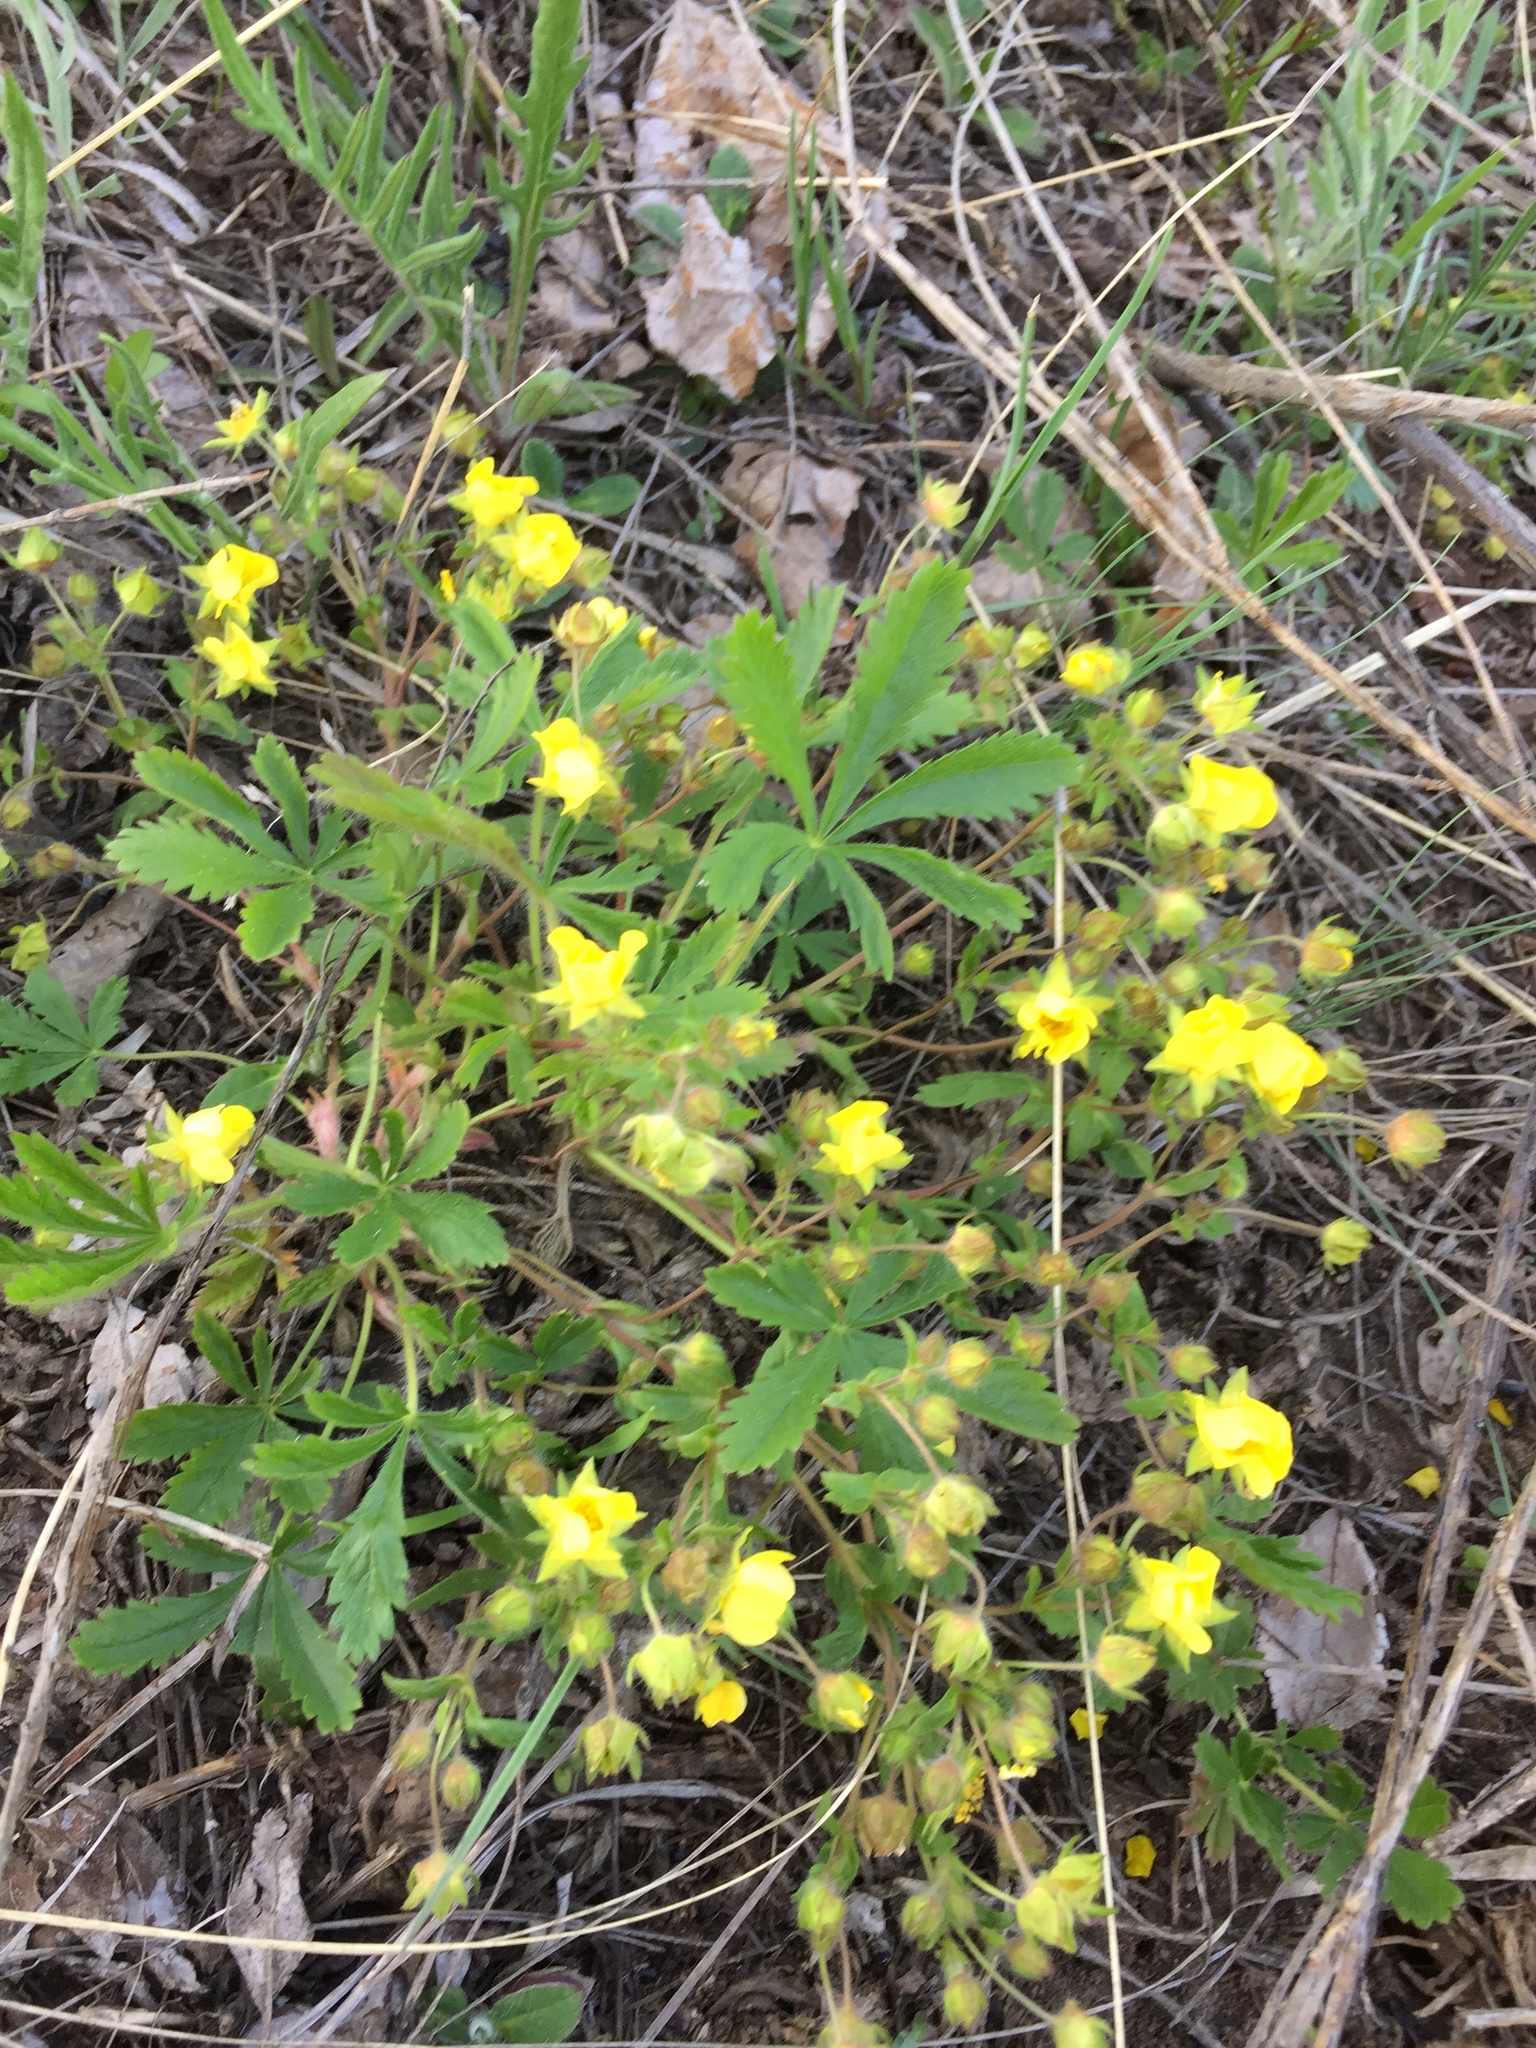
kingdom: Plantae
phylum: Tracheophyta
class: Magnoliopsida
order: Rosales
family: Rosaceae
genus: Potentilla
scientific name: Potentilla humifusa
